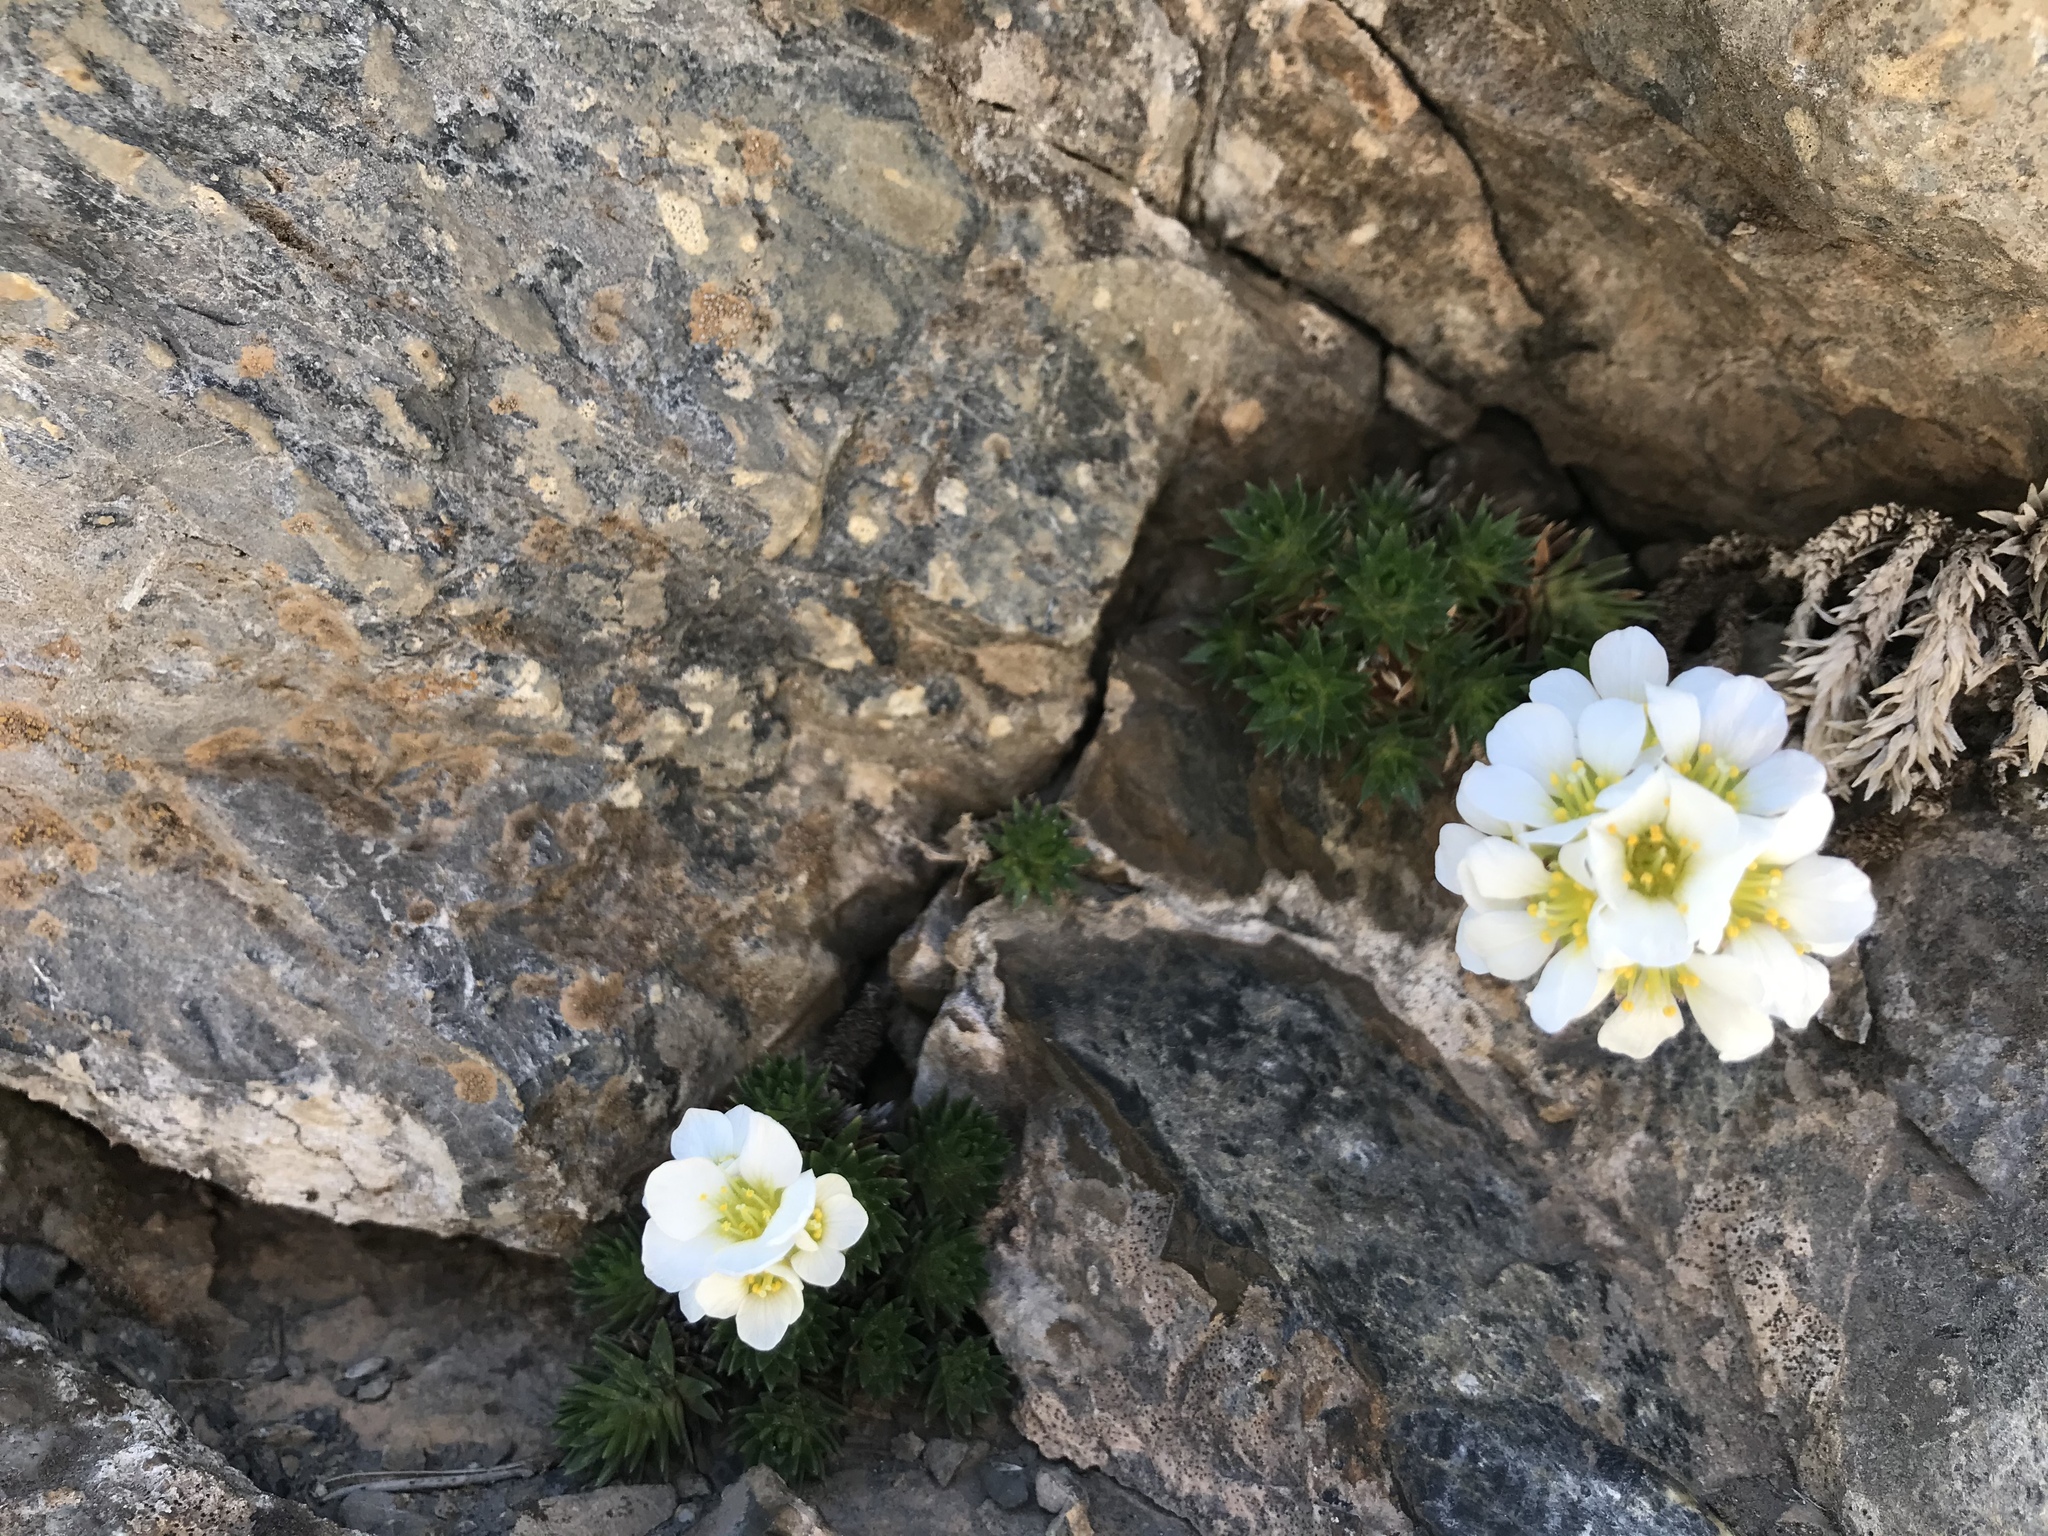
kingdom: Plantae
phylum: Tracheophyta
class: Magnoliopsida
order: Saxifragales
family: Saxifragaceae
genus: Saxifraga
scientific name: Saxifraga aretioides
